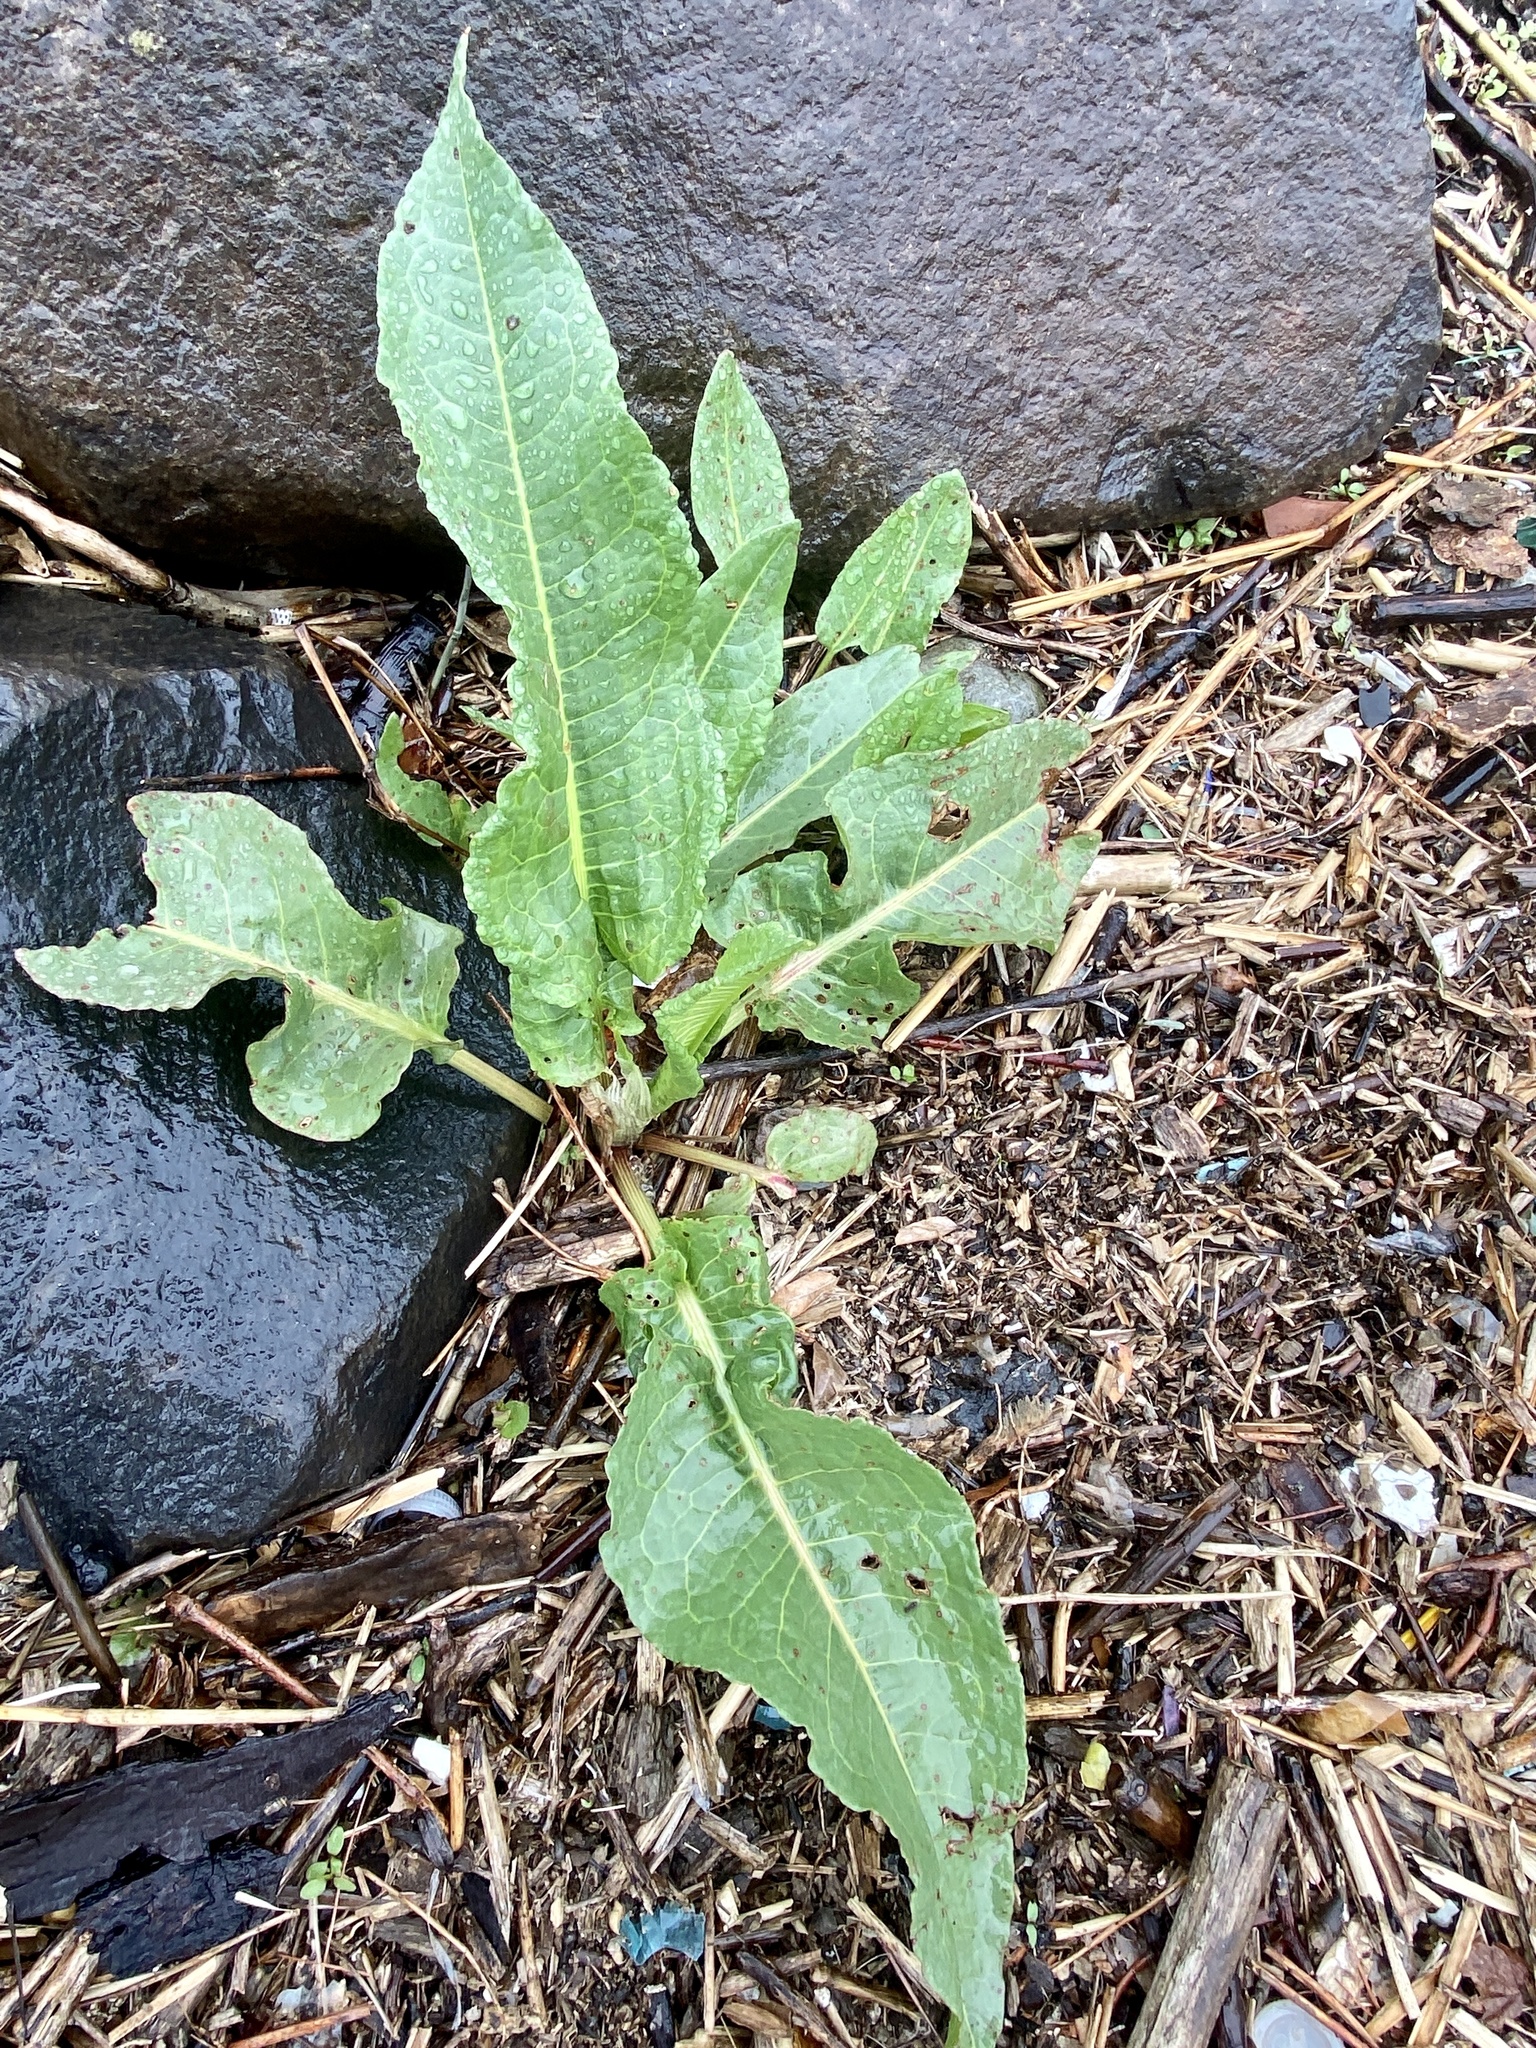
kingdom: Plantae
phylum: Tracheophyta
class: Magnoliopsida
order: Caryophyllales
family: Polygonaceae
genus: Rumex
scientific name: Rumex crispus
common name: Curled dock
